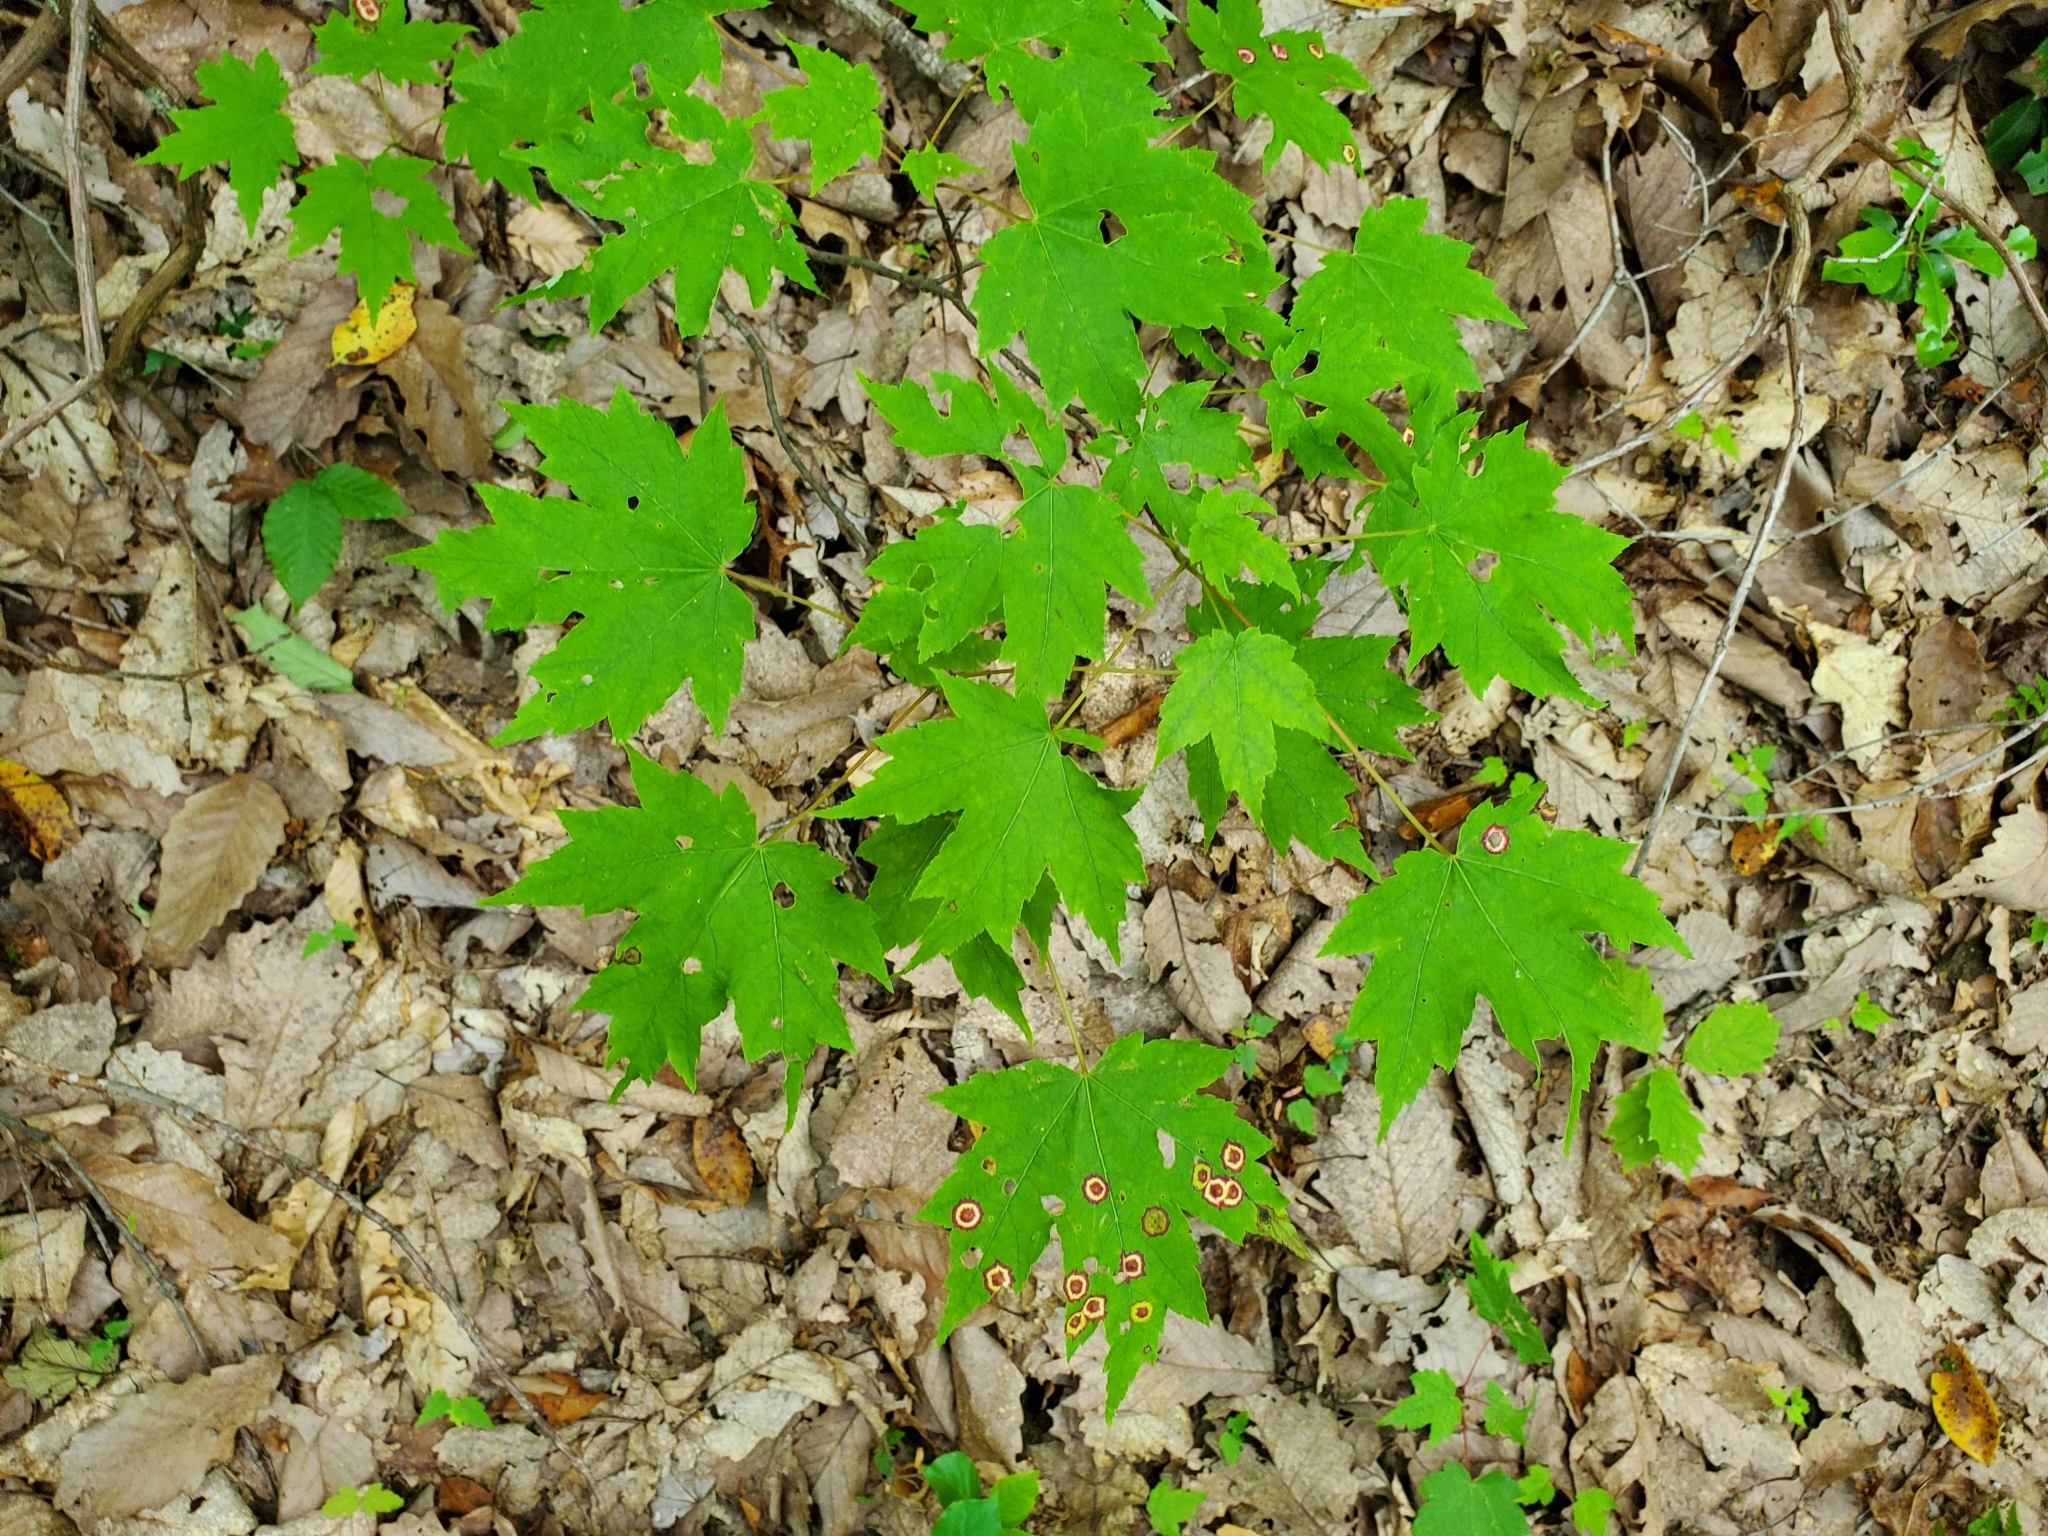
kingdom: Animalia
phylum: Arthropoda
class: Insecta
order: Diptera
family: Cecidomyiidae
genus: Acericecis
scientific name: Acericecis ocellaris
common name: Ocellate gall midge
